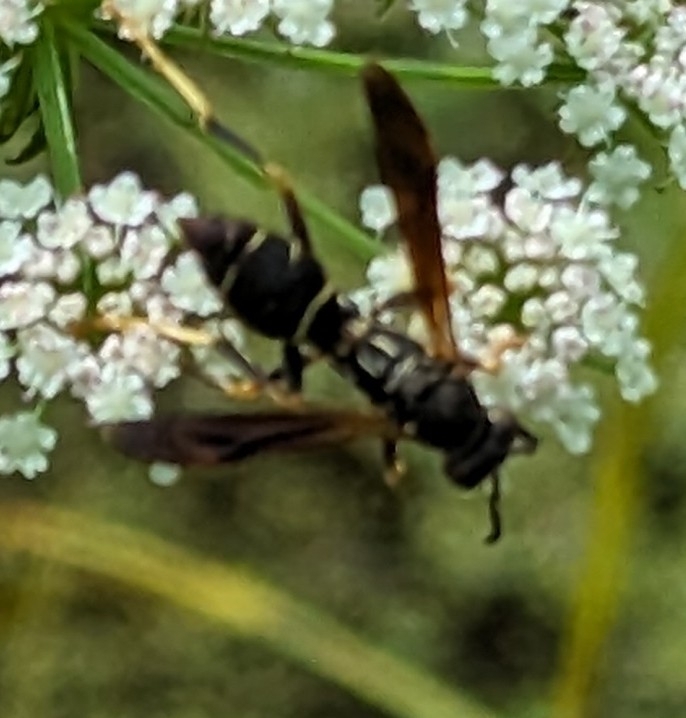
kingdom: Animalia
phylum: Arthropoda
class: Insecta
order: Hymenoptera
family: Eumenidae
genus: Polistes
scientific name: Polistes fuscatus
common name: Dark paper wasp
